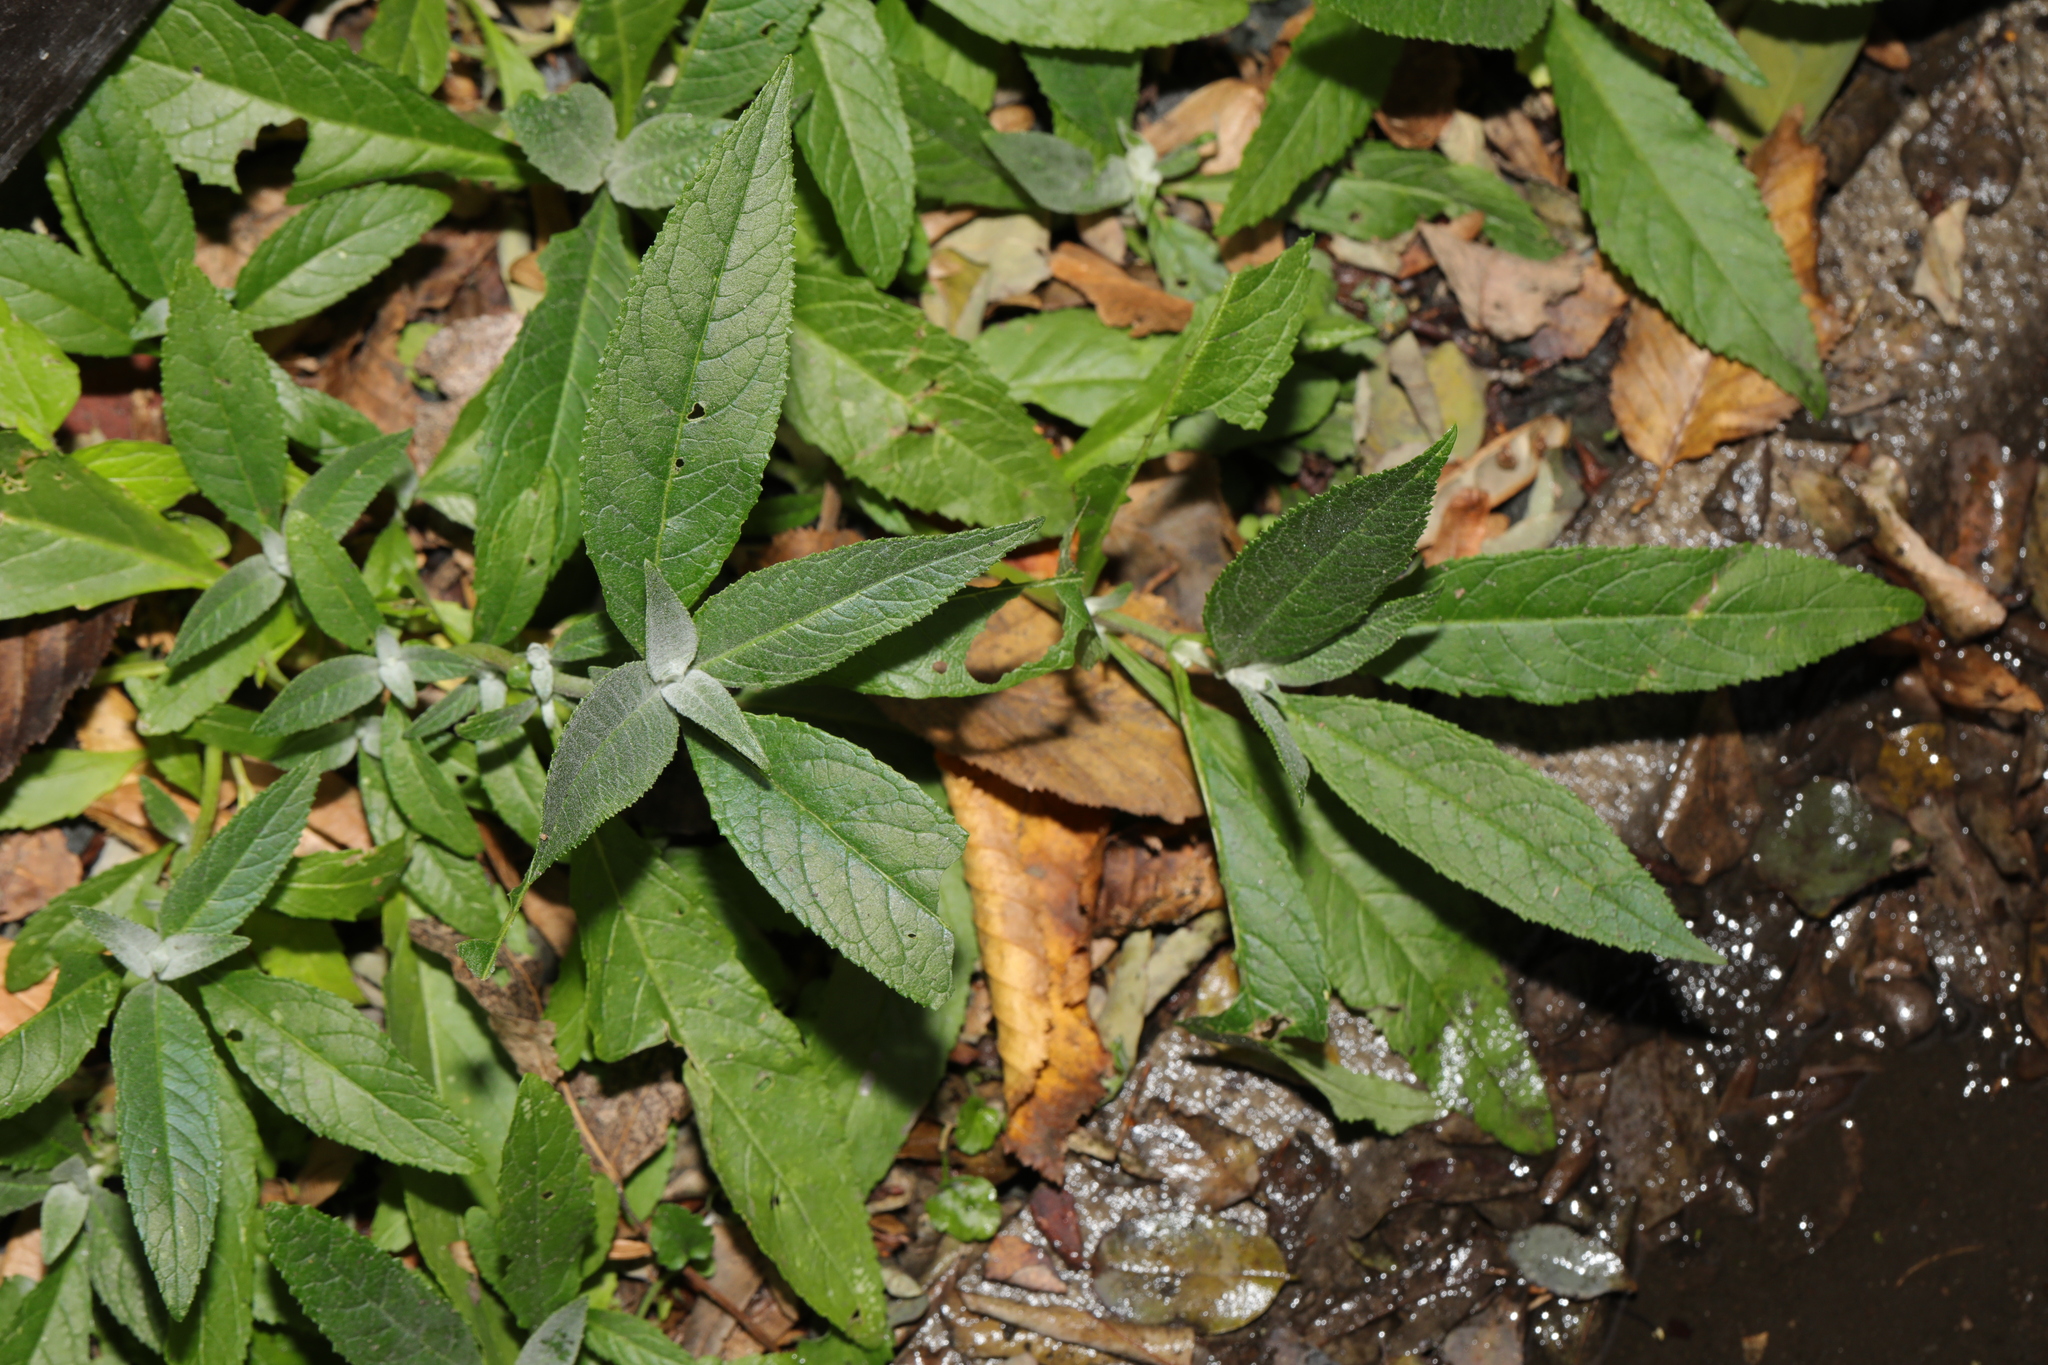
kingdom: Plantae
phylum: Tracheophyta
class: Magnoliopsida
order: Lamiales
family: Scrophulariaceae
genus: Buddleja
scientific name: Buddleja davidii
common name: Butterfly-bush
